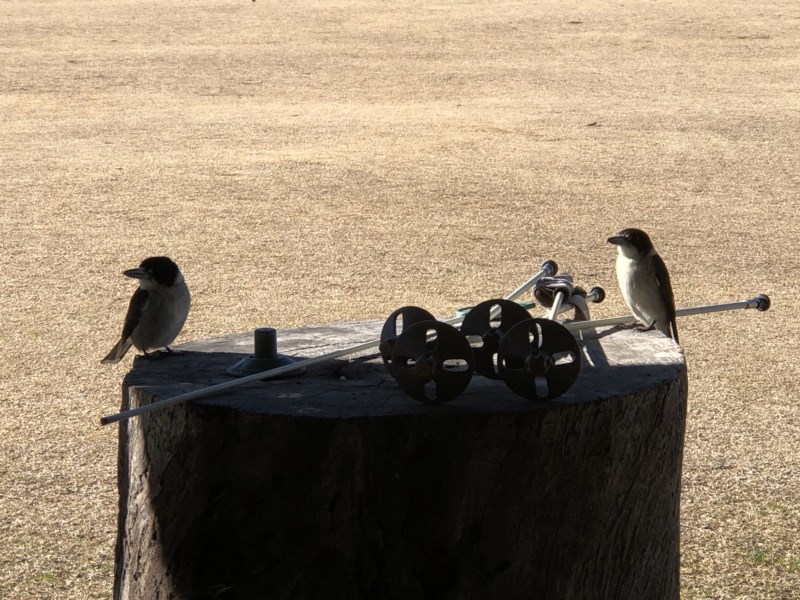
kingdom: Animalia
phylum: Chordata
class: Aves
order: Passeriformes
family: Cracticidae
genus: Cracticus
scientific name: Cracticus torquatus
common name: Grey butcherbird
